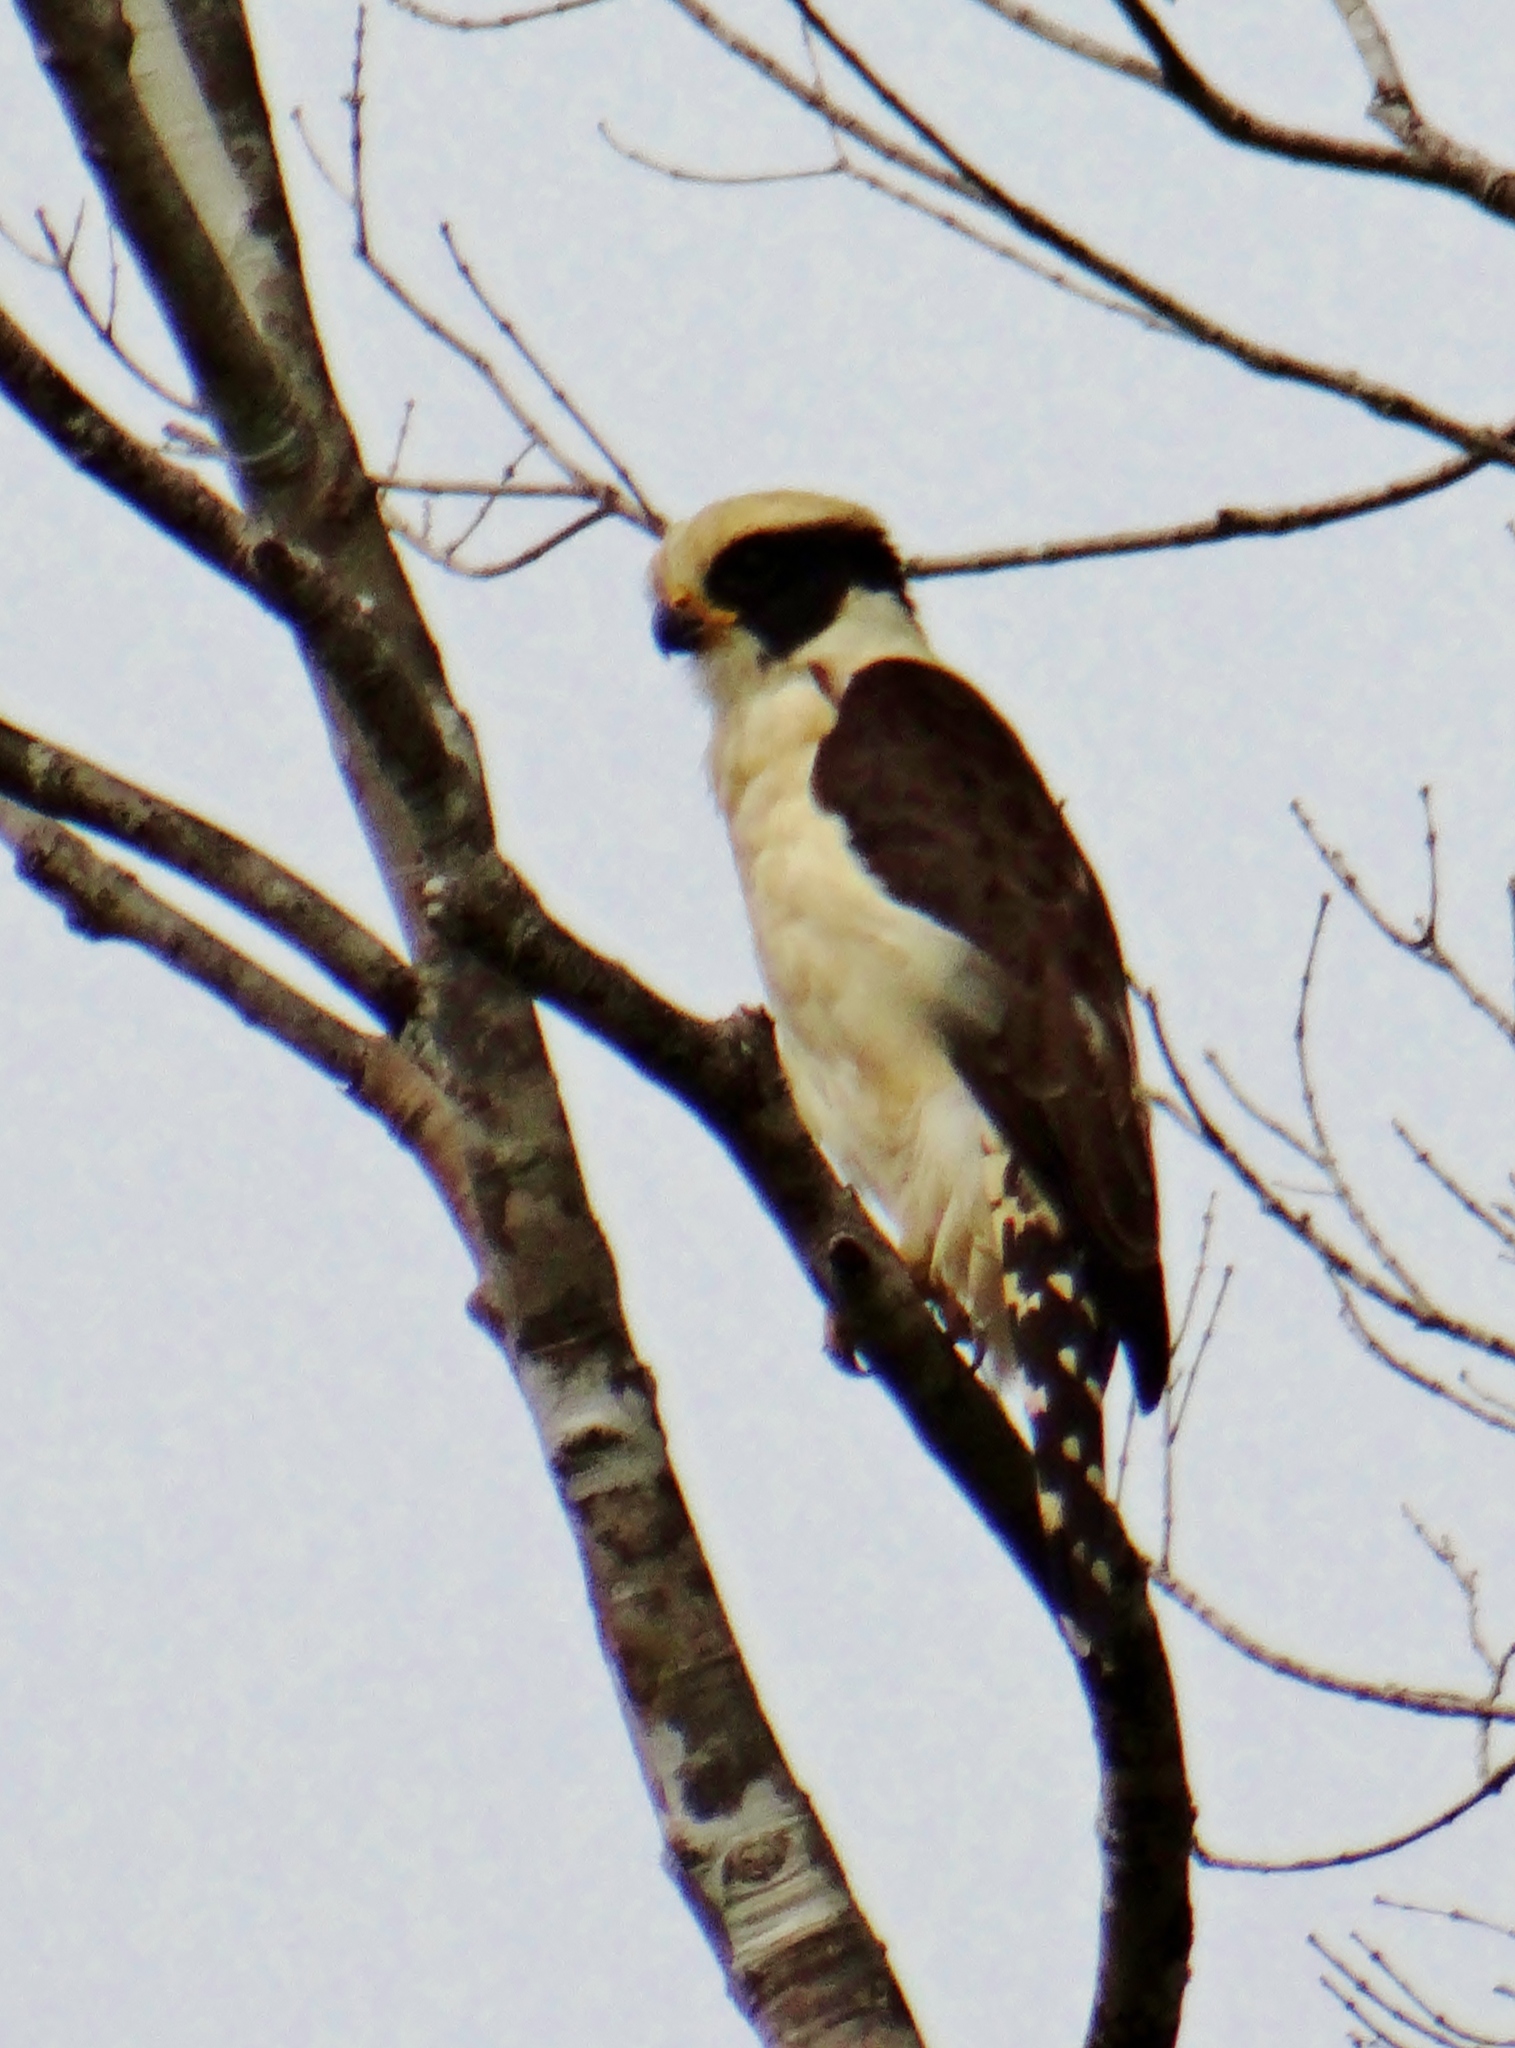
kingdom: Animalia
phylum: Chordata
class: Aves
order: Falconiformes
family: Falconidae
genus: Herpetotheres
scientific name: Herpetotheres cachinnans
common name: Laughing falcon
